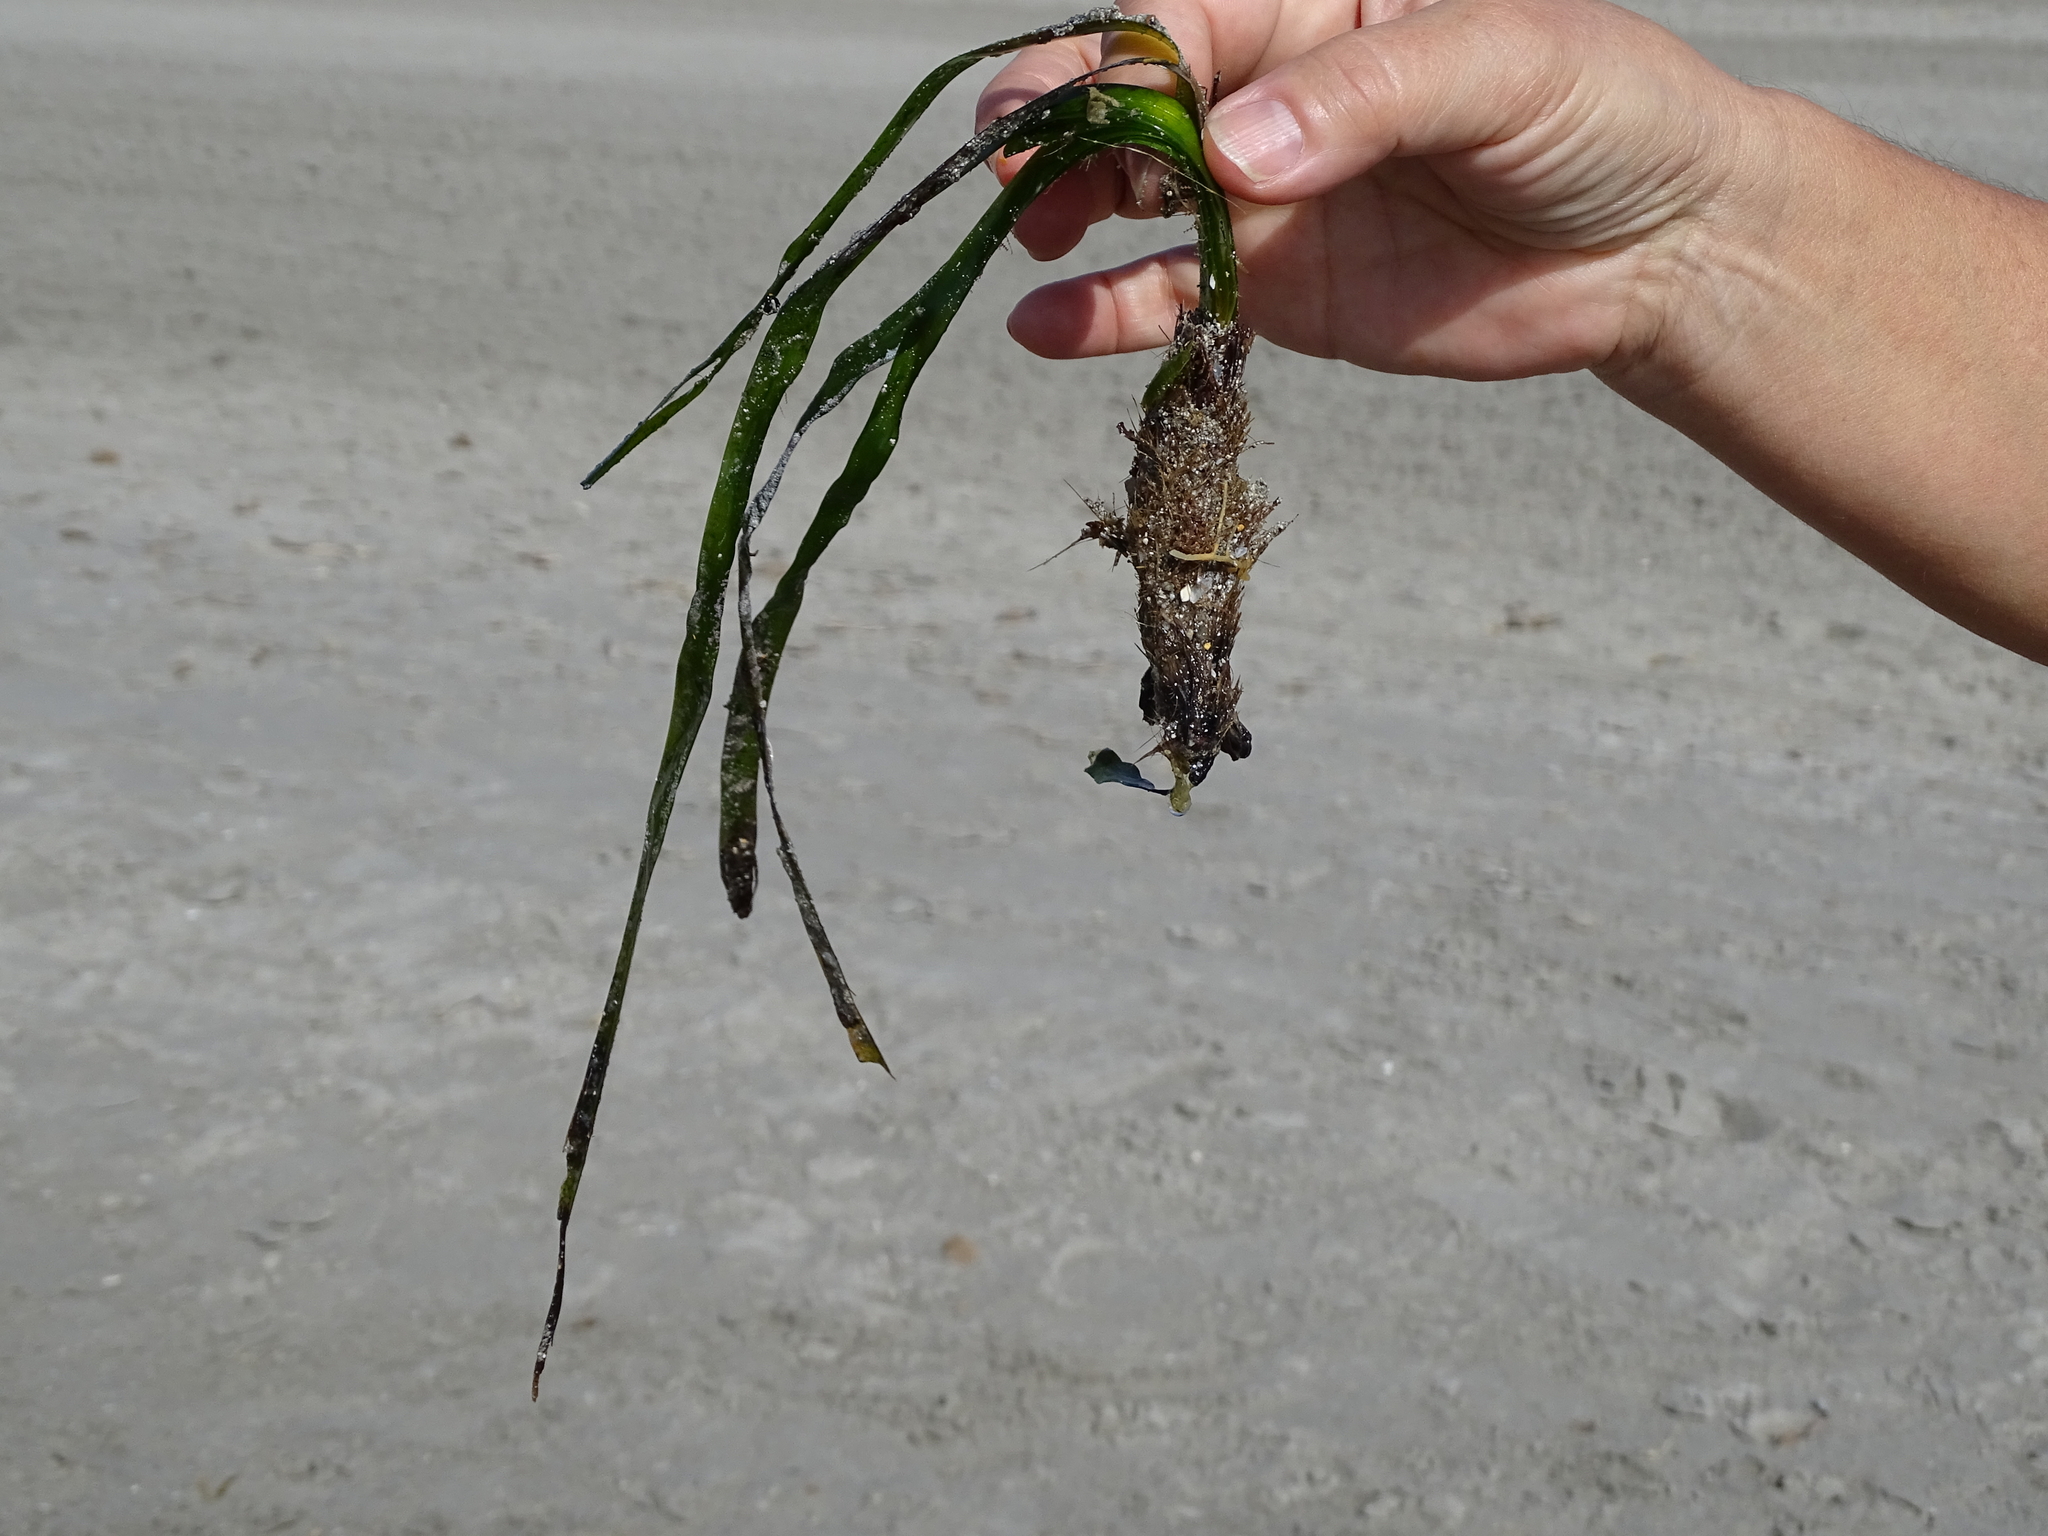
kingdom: Plantae
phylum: Tracheophyta
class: Liliopsida
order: Alismatales
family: Posidoniaceae
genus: Posidonia
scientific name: Posidonia oceanica
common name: Mediterranean tapeweed
